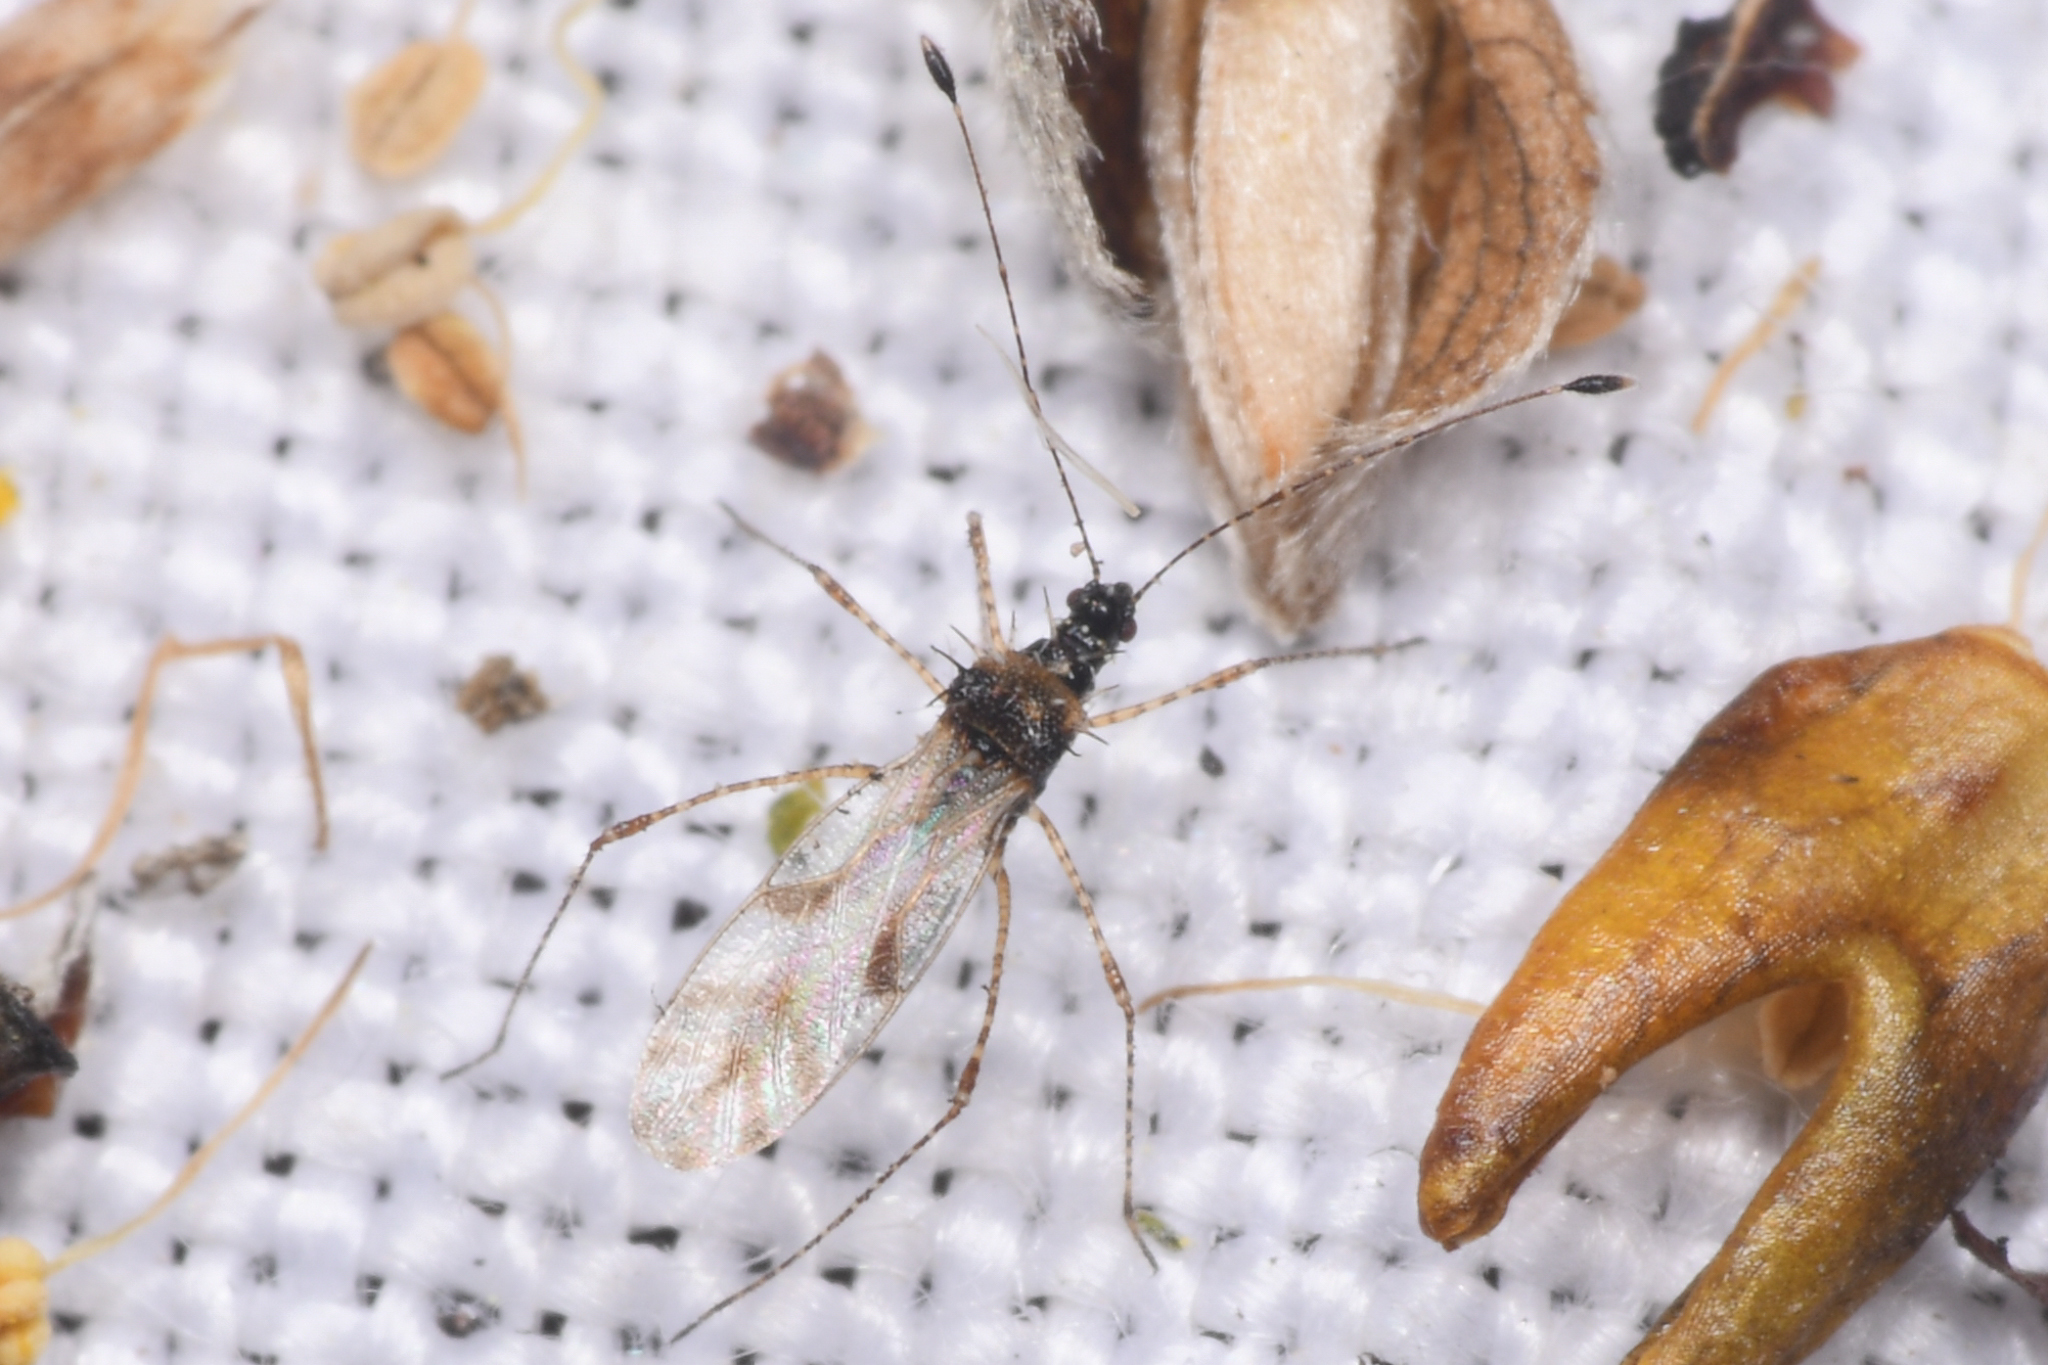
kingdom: Animalia
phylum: Arthropoda
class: Insecta
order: Hemiptera
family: Berytidae
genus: Pronotacantha
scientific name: Pronotacantha annulata
